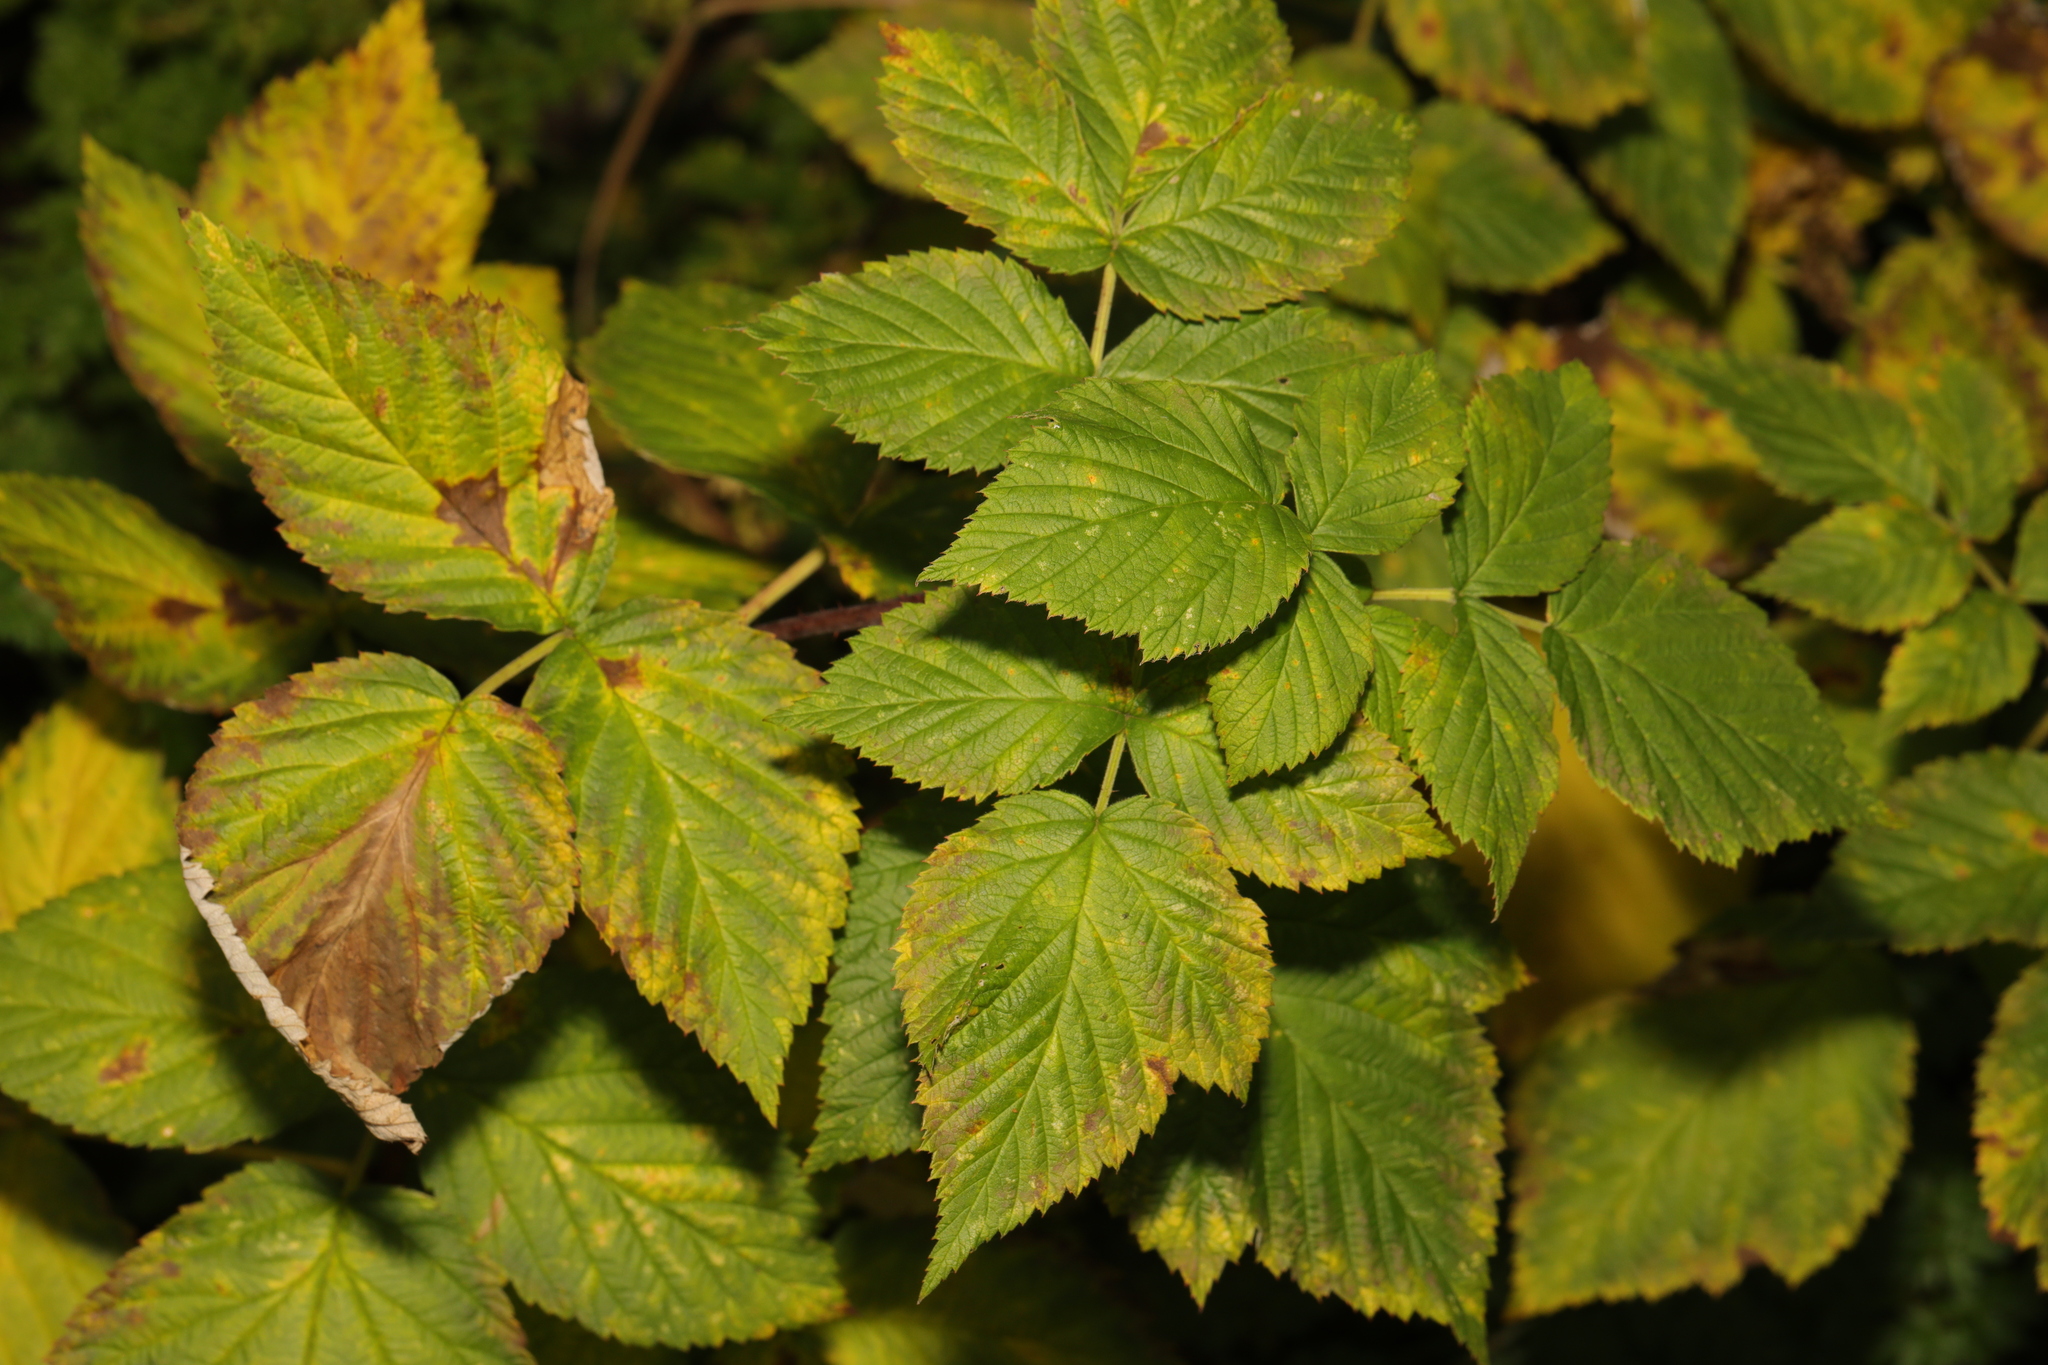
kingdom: Plantae
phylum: Tracheophyta
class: Magnoliopsida
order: Rosales
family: Rosaceae
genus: Rubus
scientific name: Rubus idaeus
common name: Raspberry
